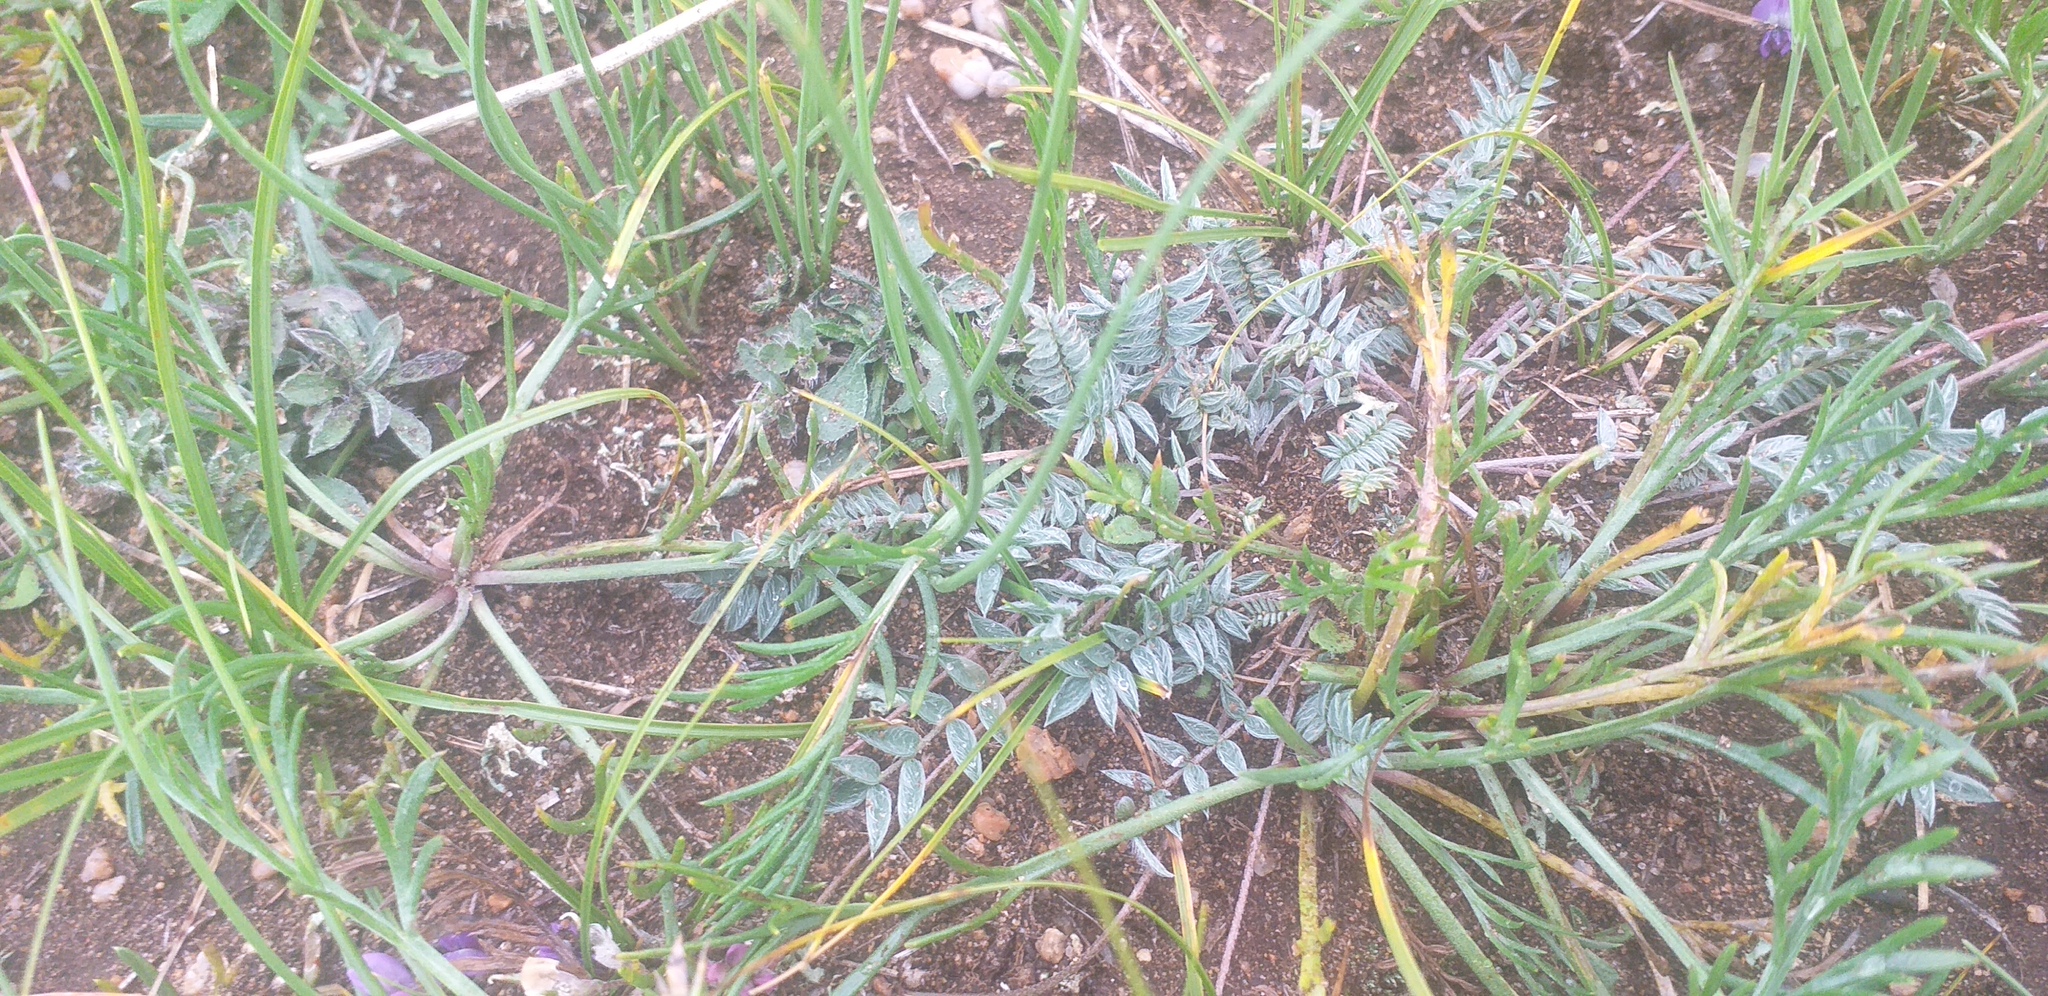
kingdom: Plantae
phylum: Tracheophyta
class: Magnoliopsida
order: Fabales
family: Fabaceae
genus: Oxytropis
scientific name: Oxytropis martjanovii
